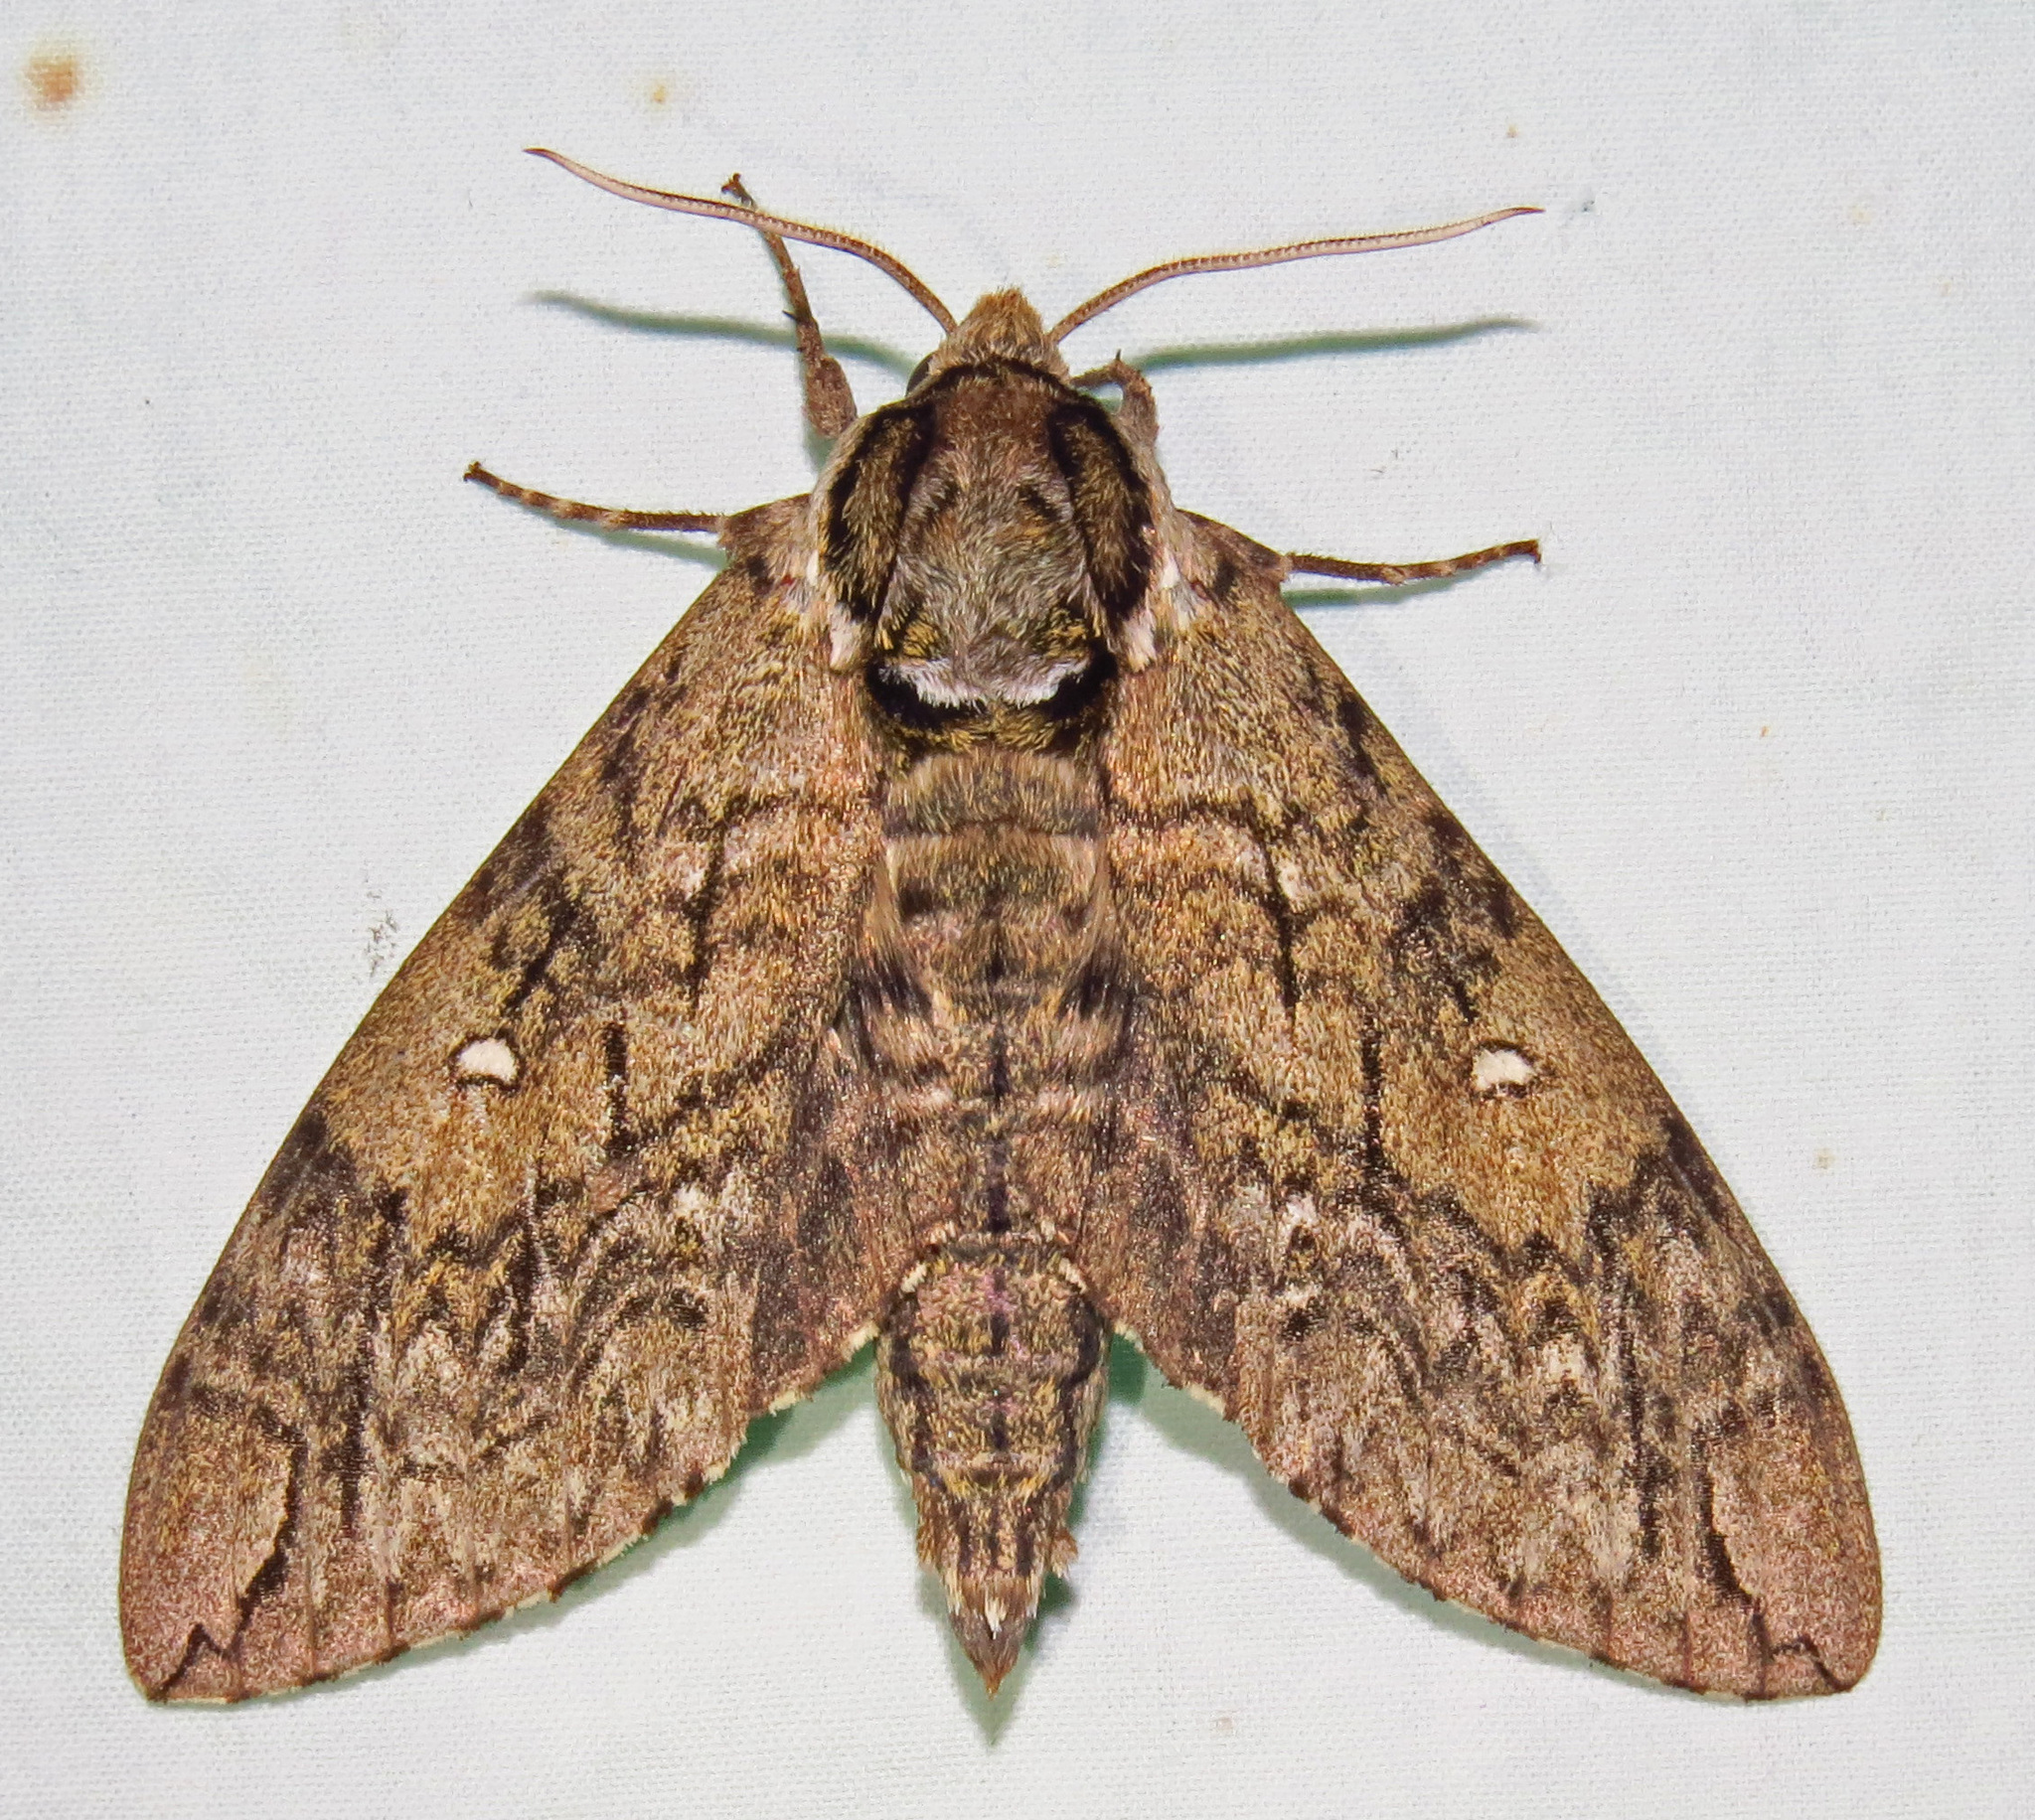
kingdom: Animalia
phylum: Arthropoda
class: Insecta
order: Lepidoptera
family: Sphingidae
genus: Ceratomia
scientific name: Ceratomia undulosa
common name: Waved sphinx
